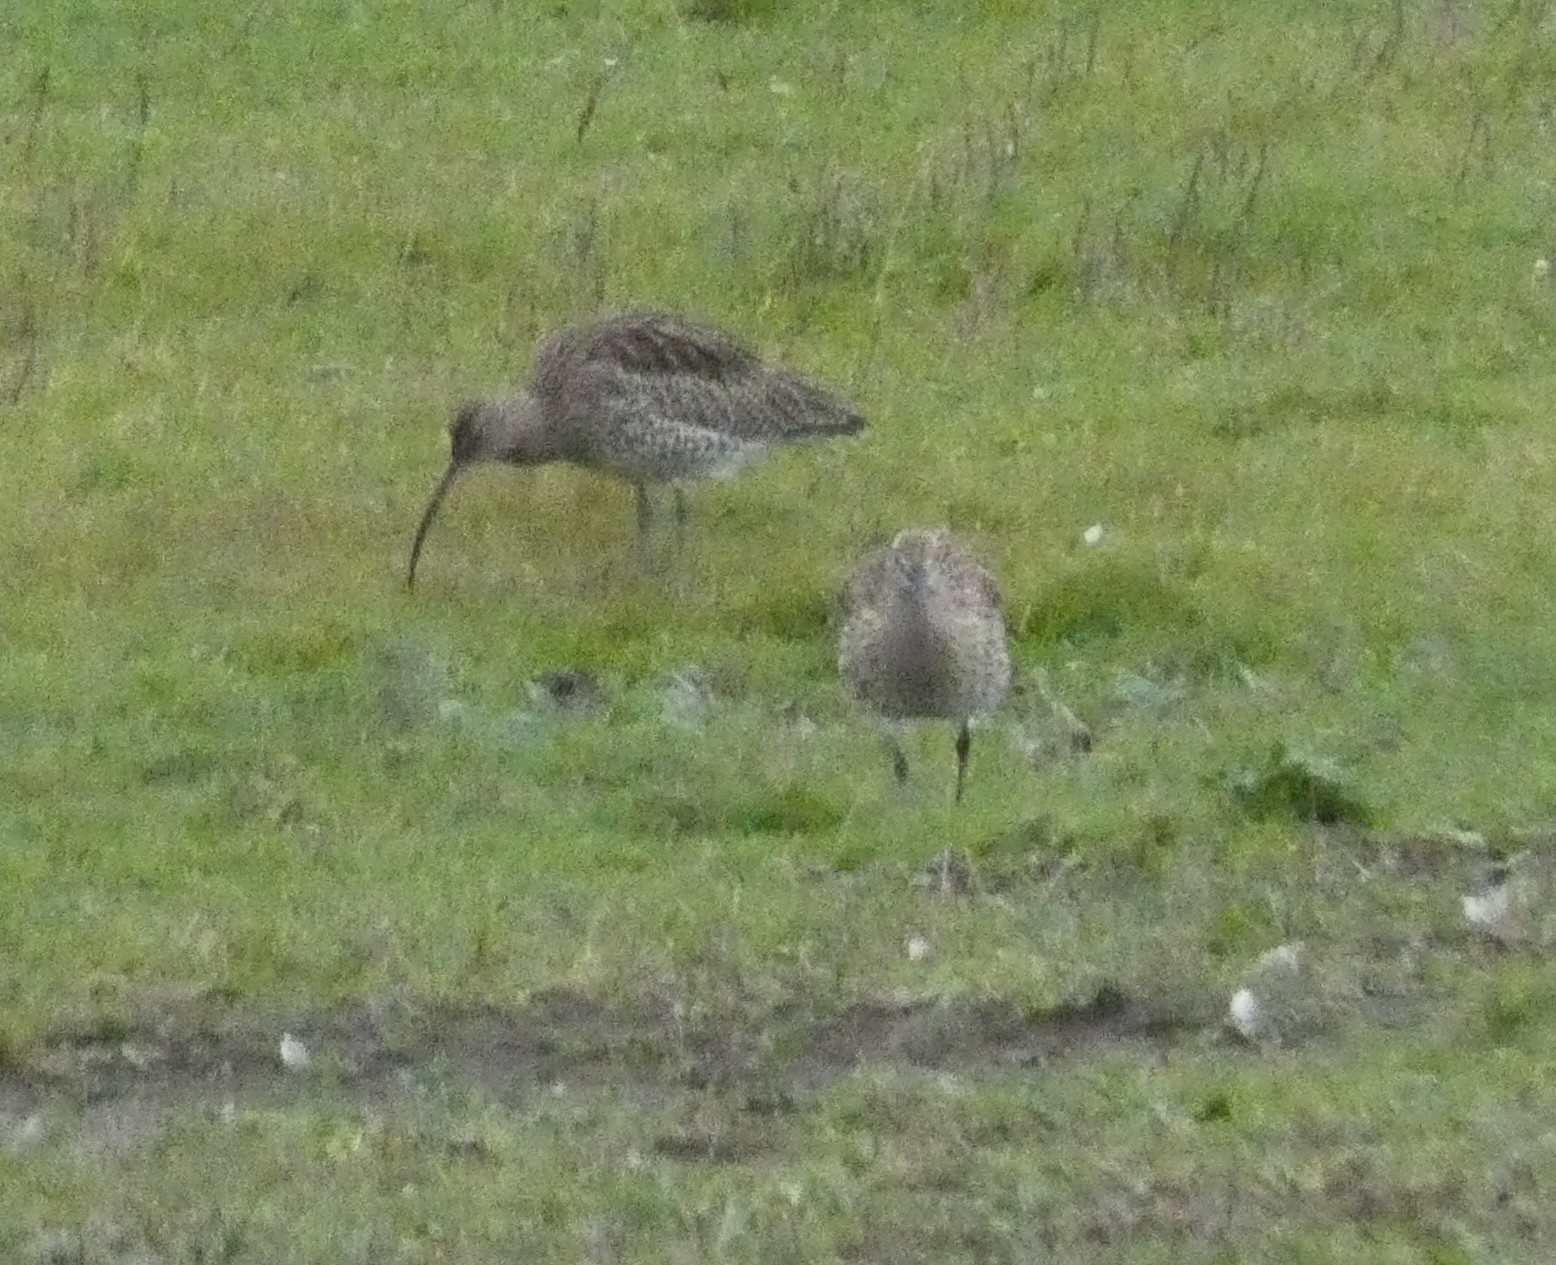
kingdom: Animalia
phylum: Chordata
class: Aves
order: Charadriiformes
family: Scolopacidae
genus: Numenius
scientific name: Numenius arquata
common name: Eurasian curlew
